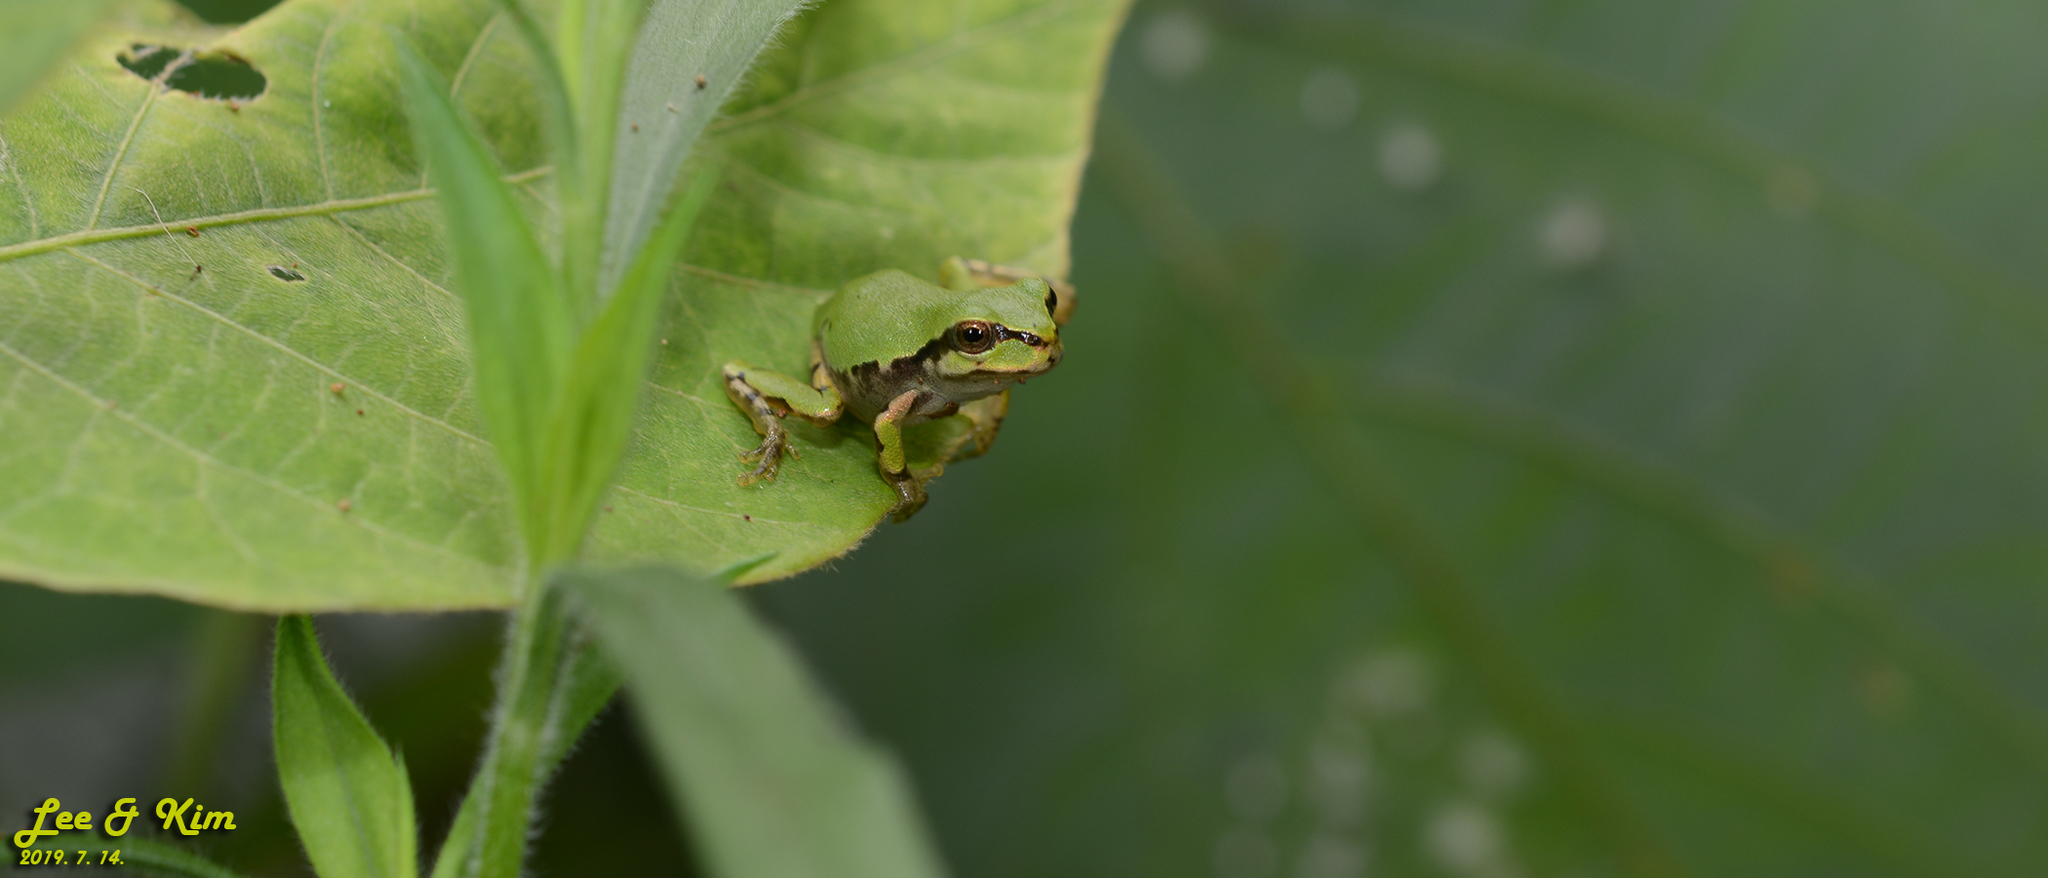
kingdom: Animalia
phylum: Chordata
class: Amphibia
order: Anura
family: Hylidae
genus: Dryophytes
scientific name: Dryophytes japonicus
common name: Japanese treefrog
